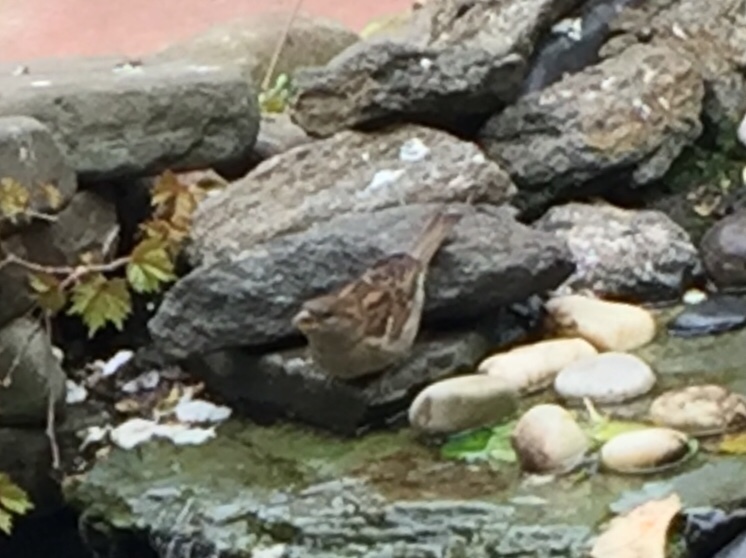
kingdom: Animalia
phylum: Chordata
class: Aves
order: Passeriformes
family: Passeridae
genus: Passer
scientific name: Passer domesticus
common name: House sparrow
